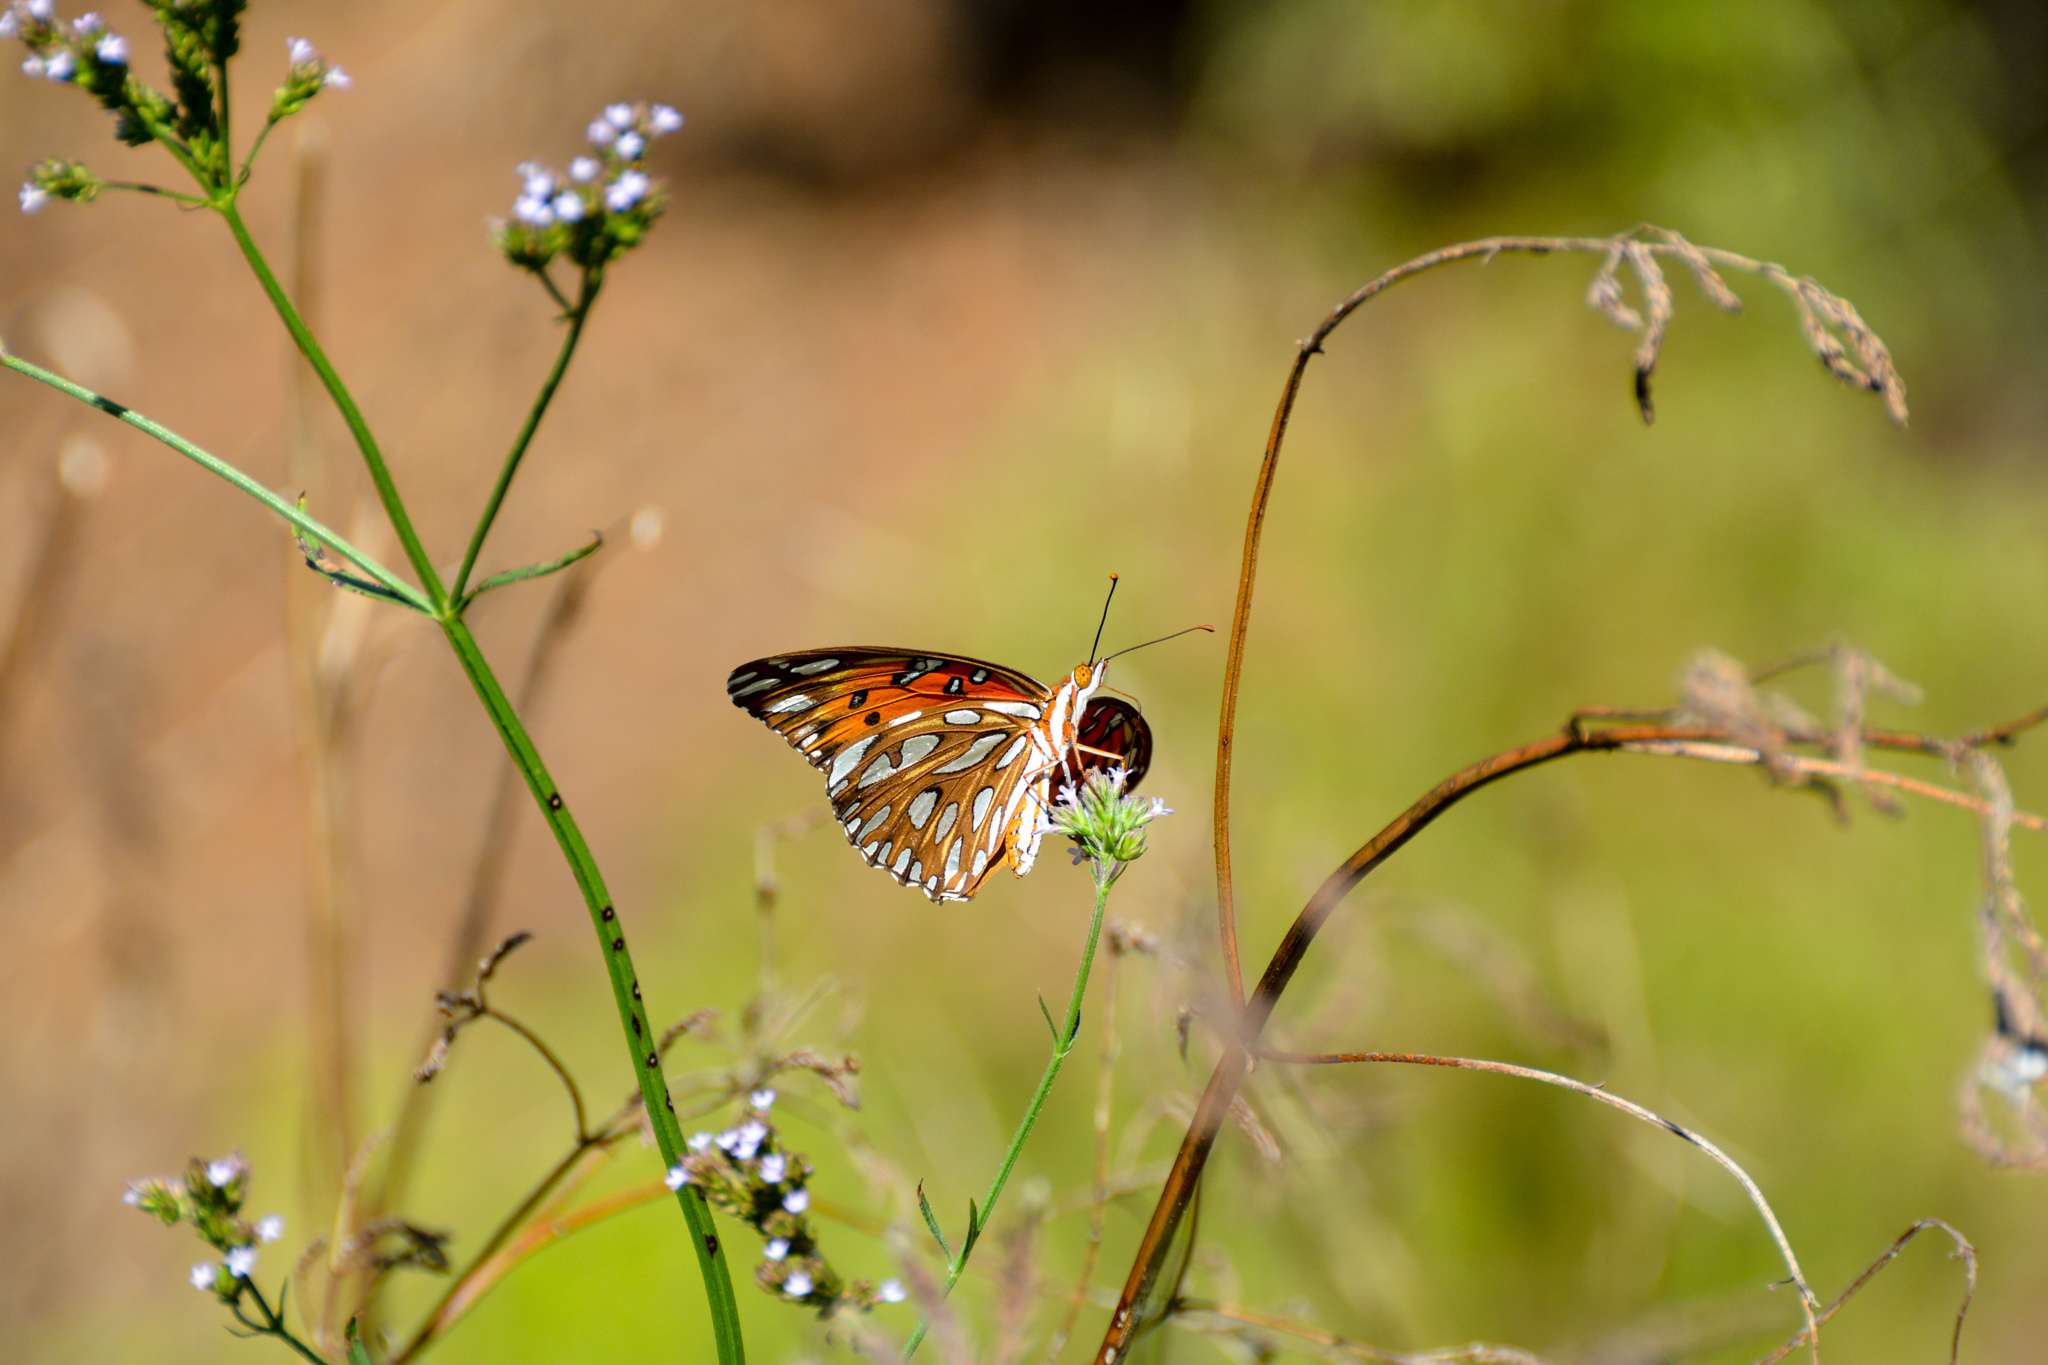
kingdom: Animalia
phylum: Arthropoda
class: Insecta
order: Lepidoptera
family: Nymphalidae
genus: Dione
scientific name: Dione vanillae
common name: Gulf fritillary
